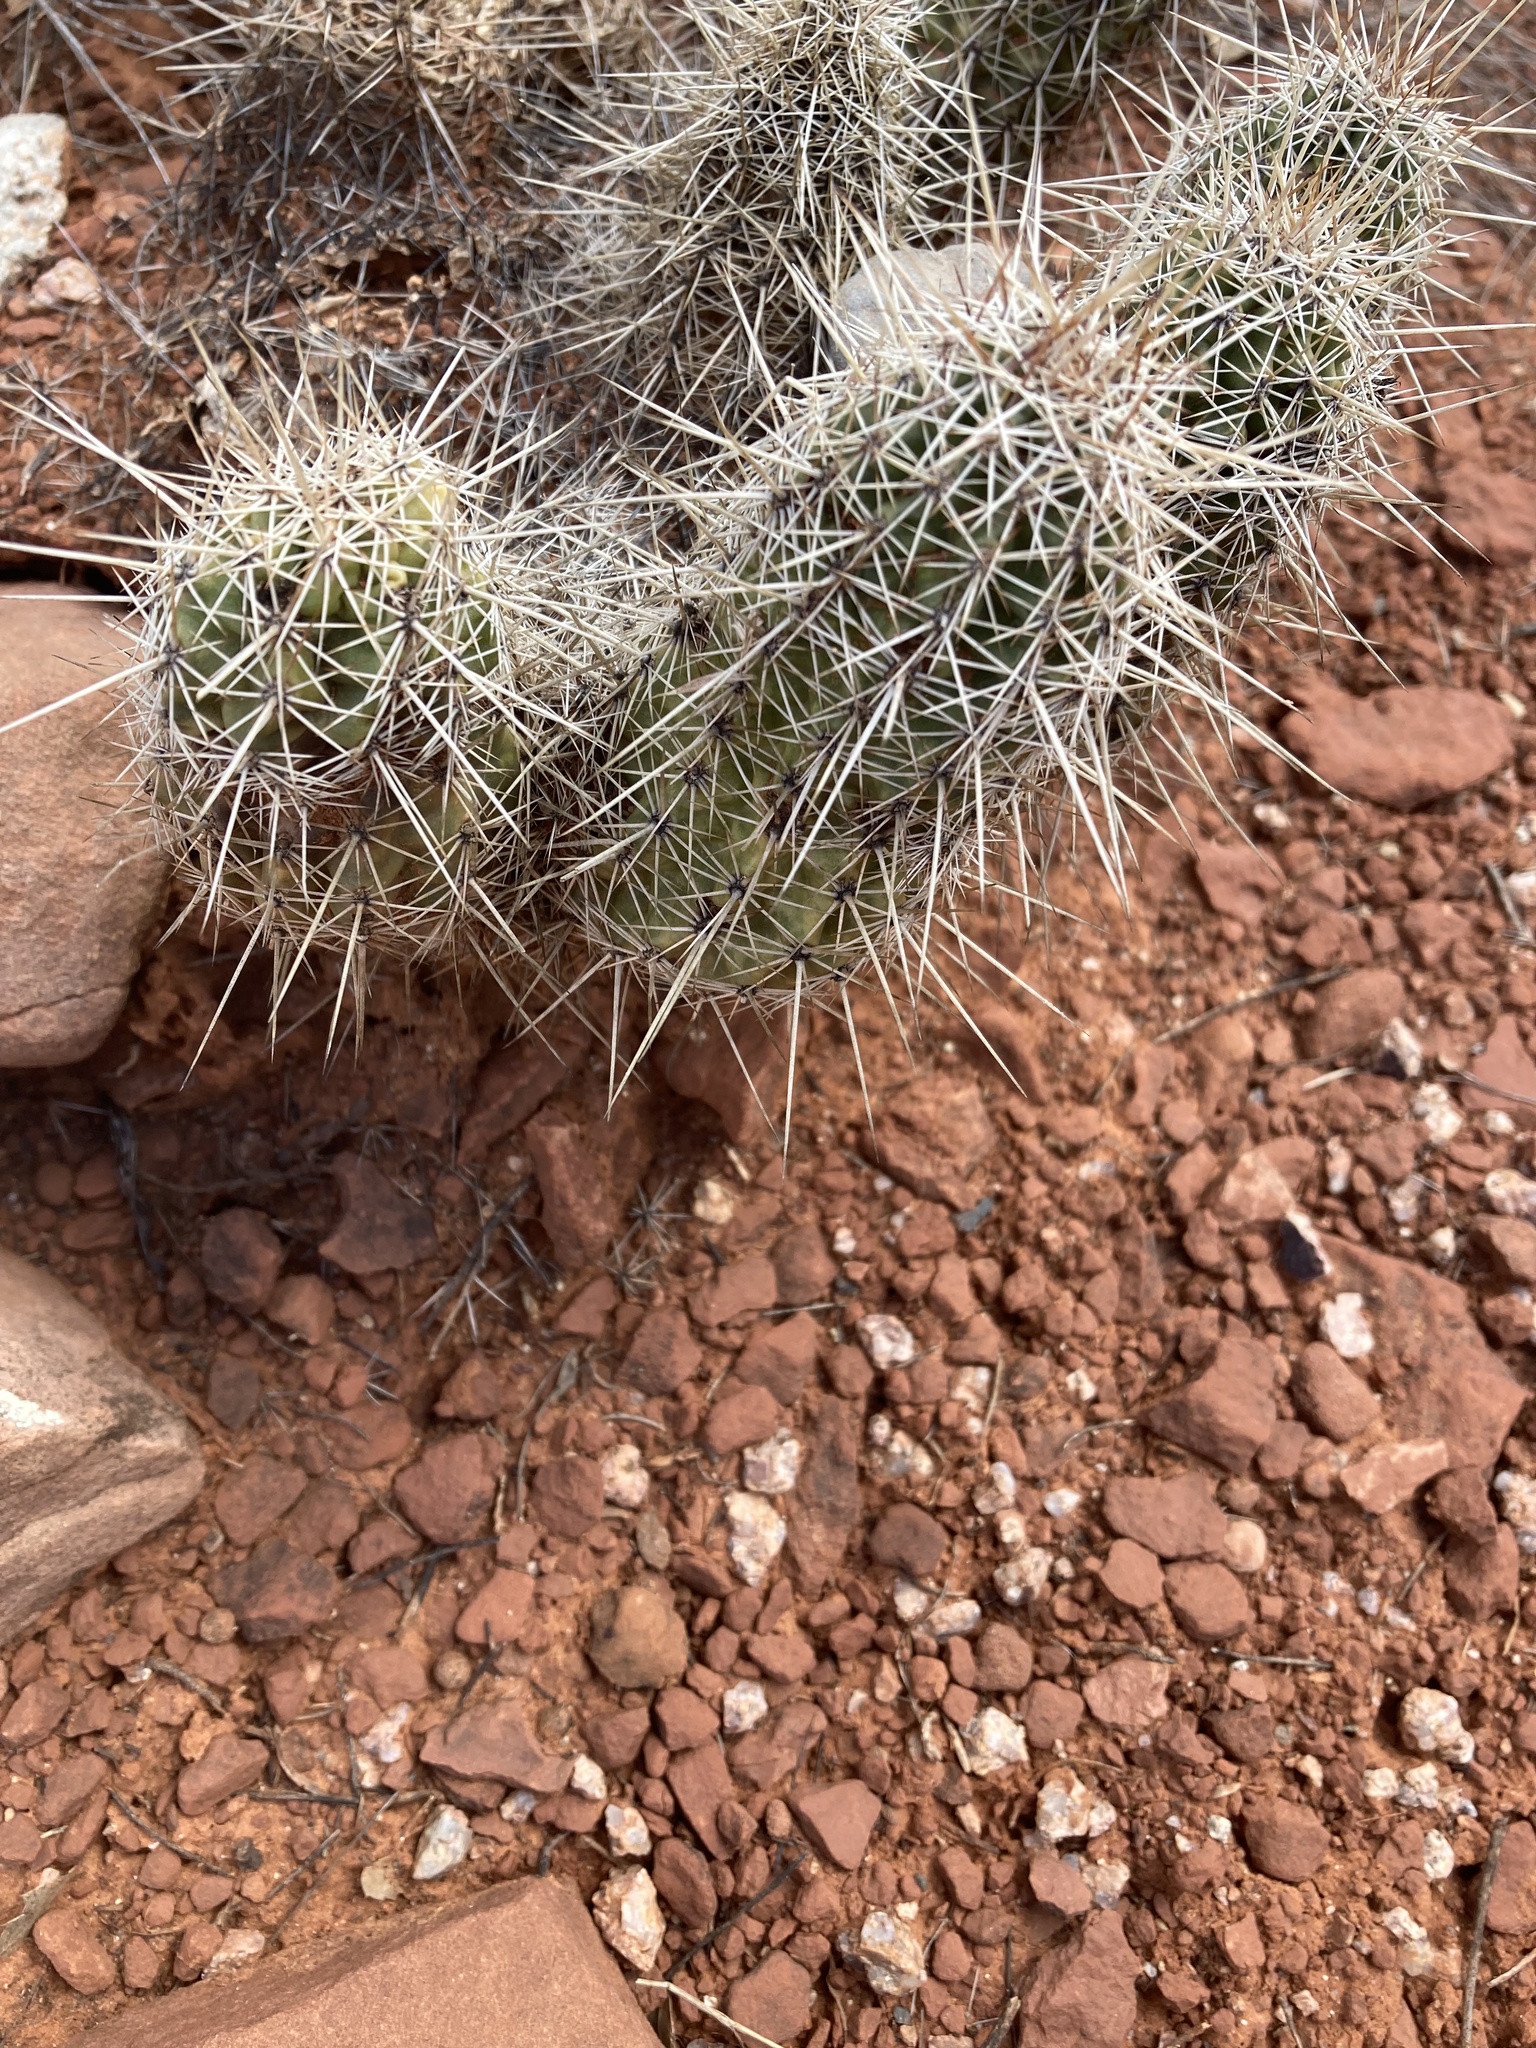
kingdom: Plantae
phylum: Tracheophyta
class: Magnoliopsida
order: Caryophyllales
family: Cactaceae
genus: Echinocereus
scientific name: Echinocereus fasciculatus
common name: Bundle hedgehog
